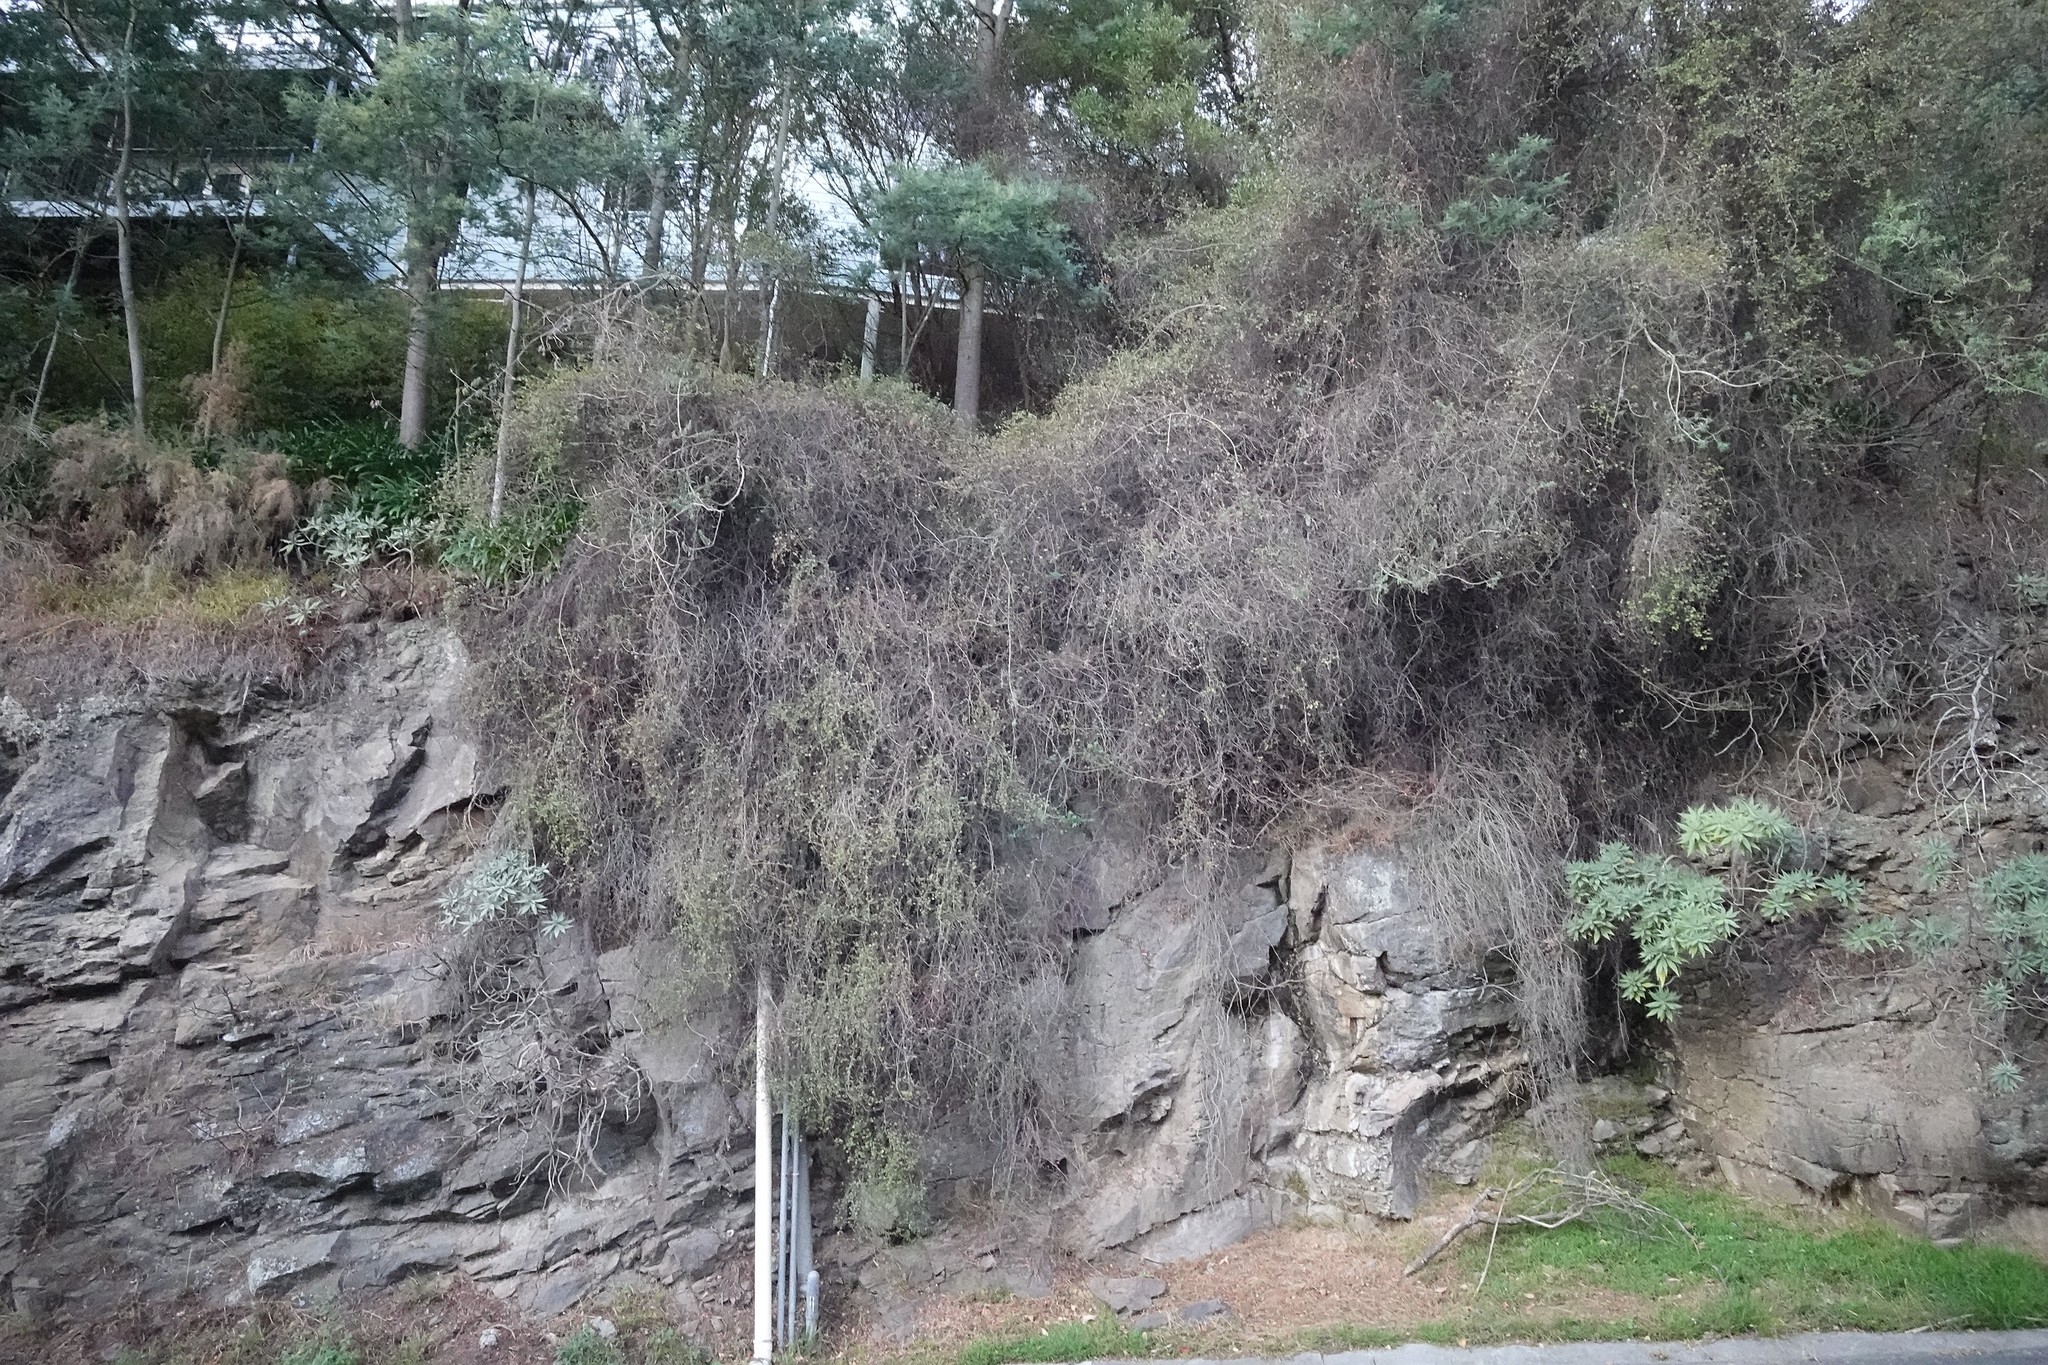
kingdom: Plantae
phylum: Tracheophyta
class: Magnoliopsida
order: Boraginales
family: Boraginaceae
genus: Echium
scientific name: Echium candicans
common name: Pride of madeira
